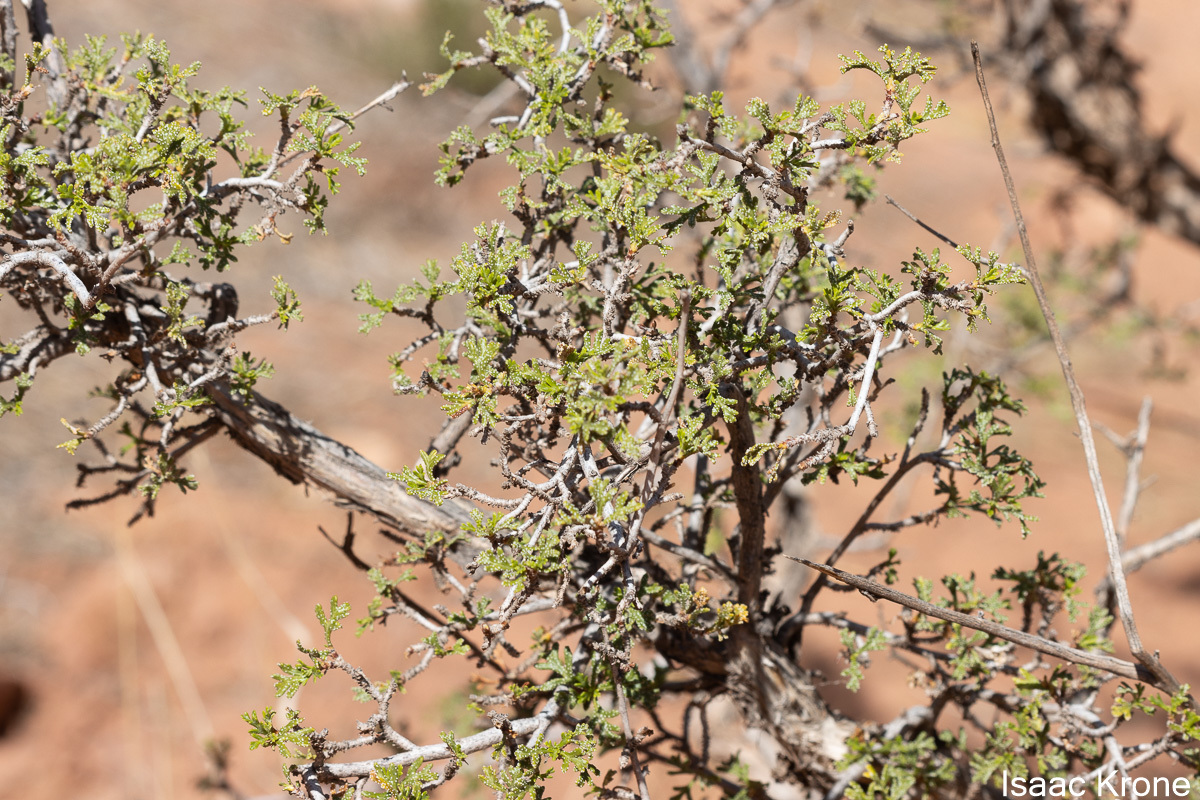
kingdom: Plantae
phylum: Tracheophyta
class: Magnoliopsida
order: Rosales
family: Rosaceae
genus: Purshia
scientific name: Purshia stansburiana
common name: Stansbury's cliffrose
